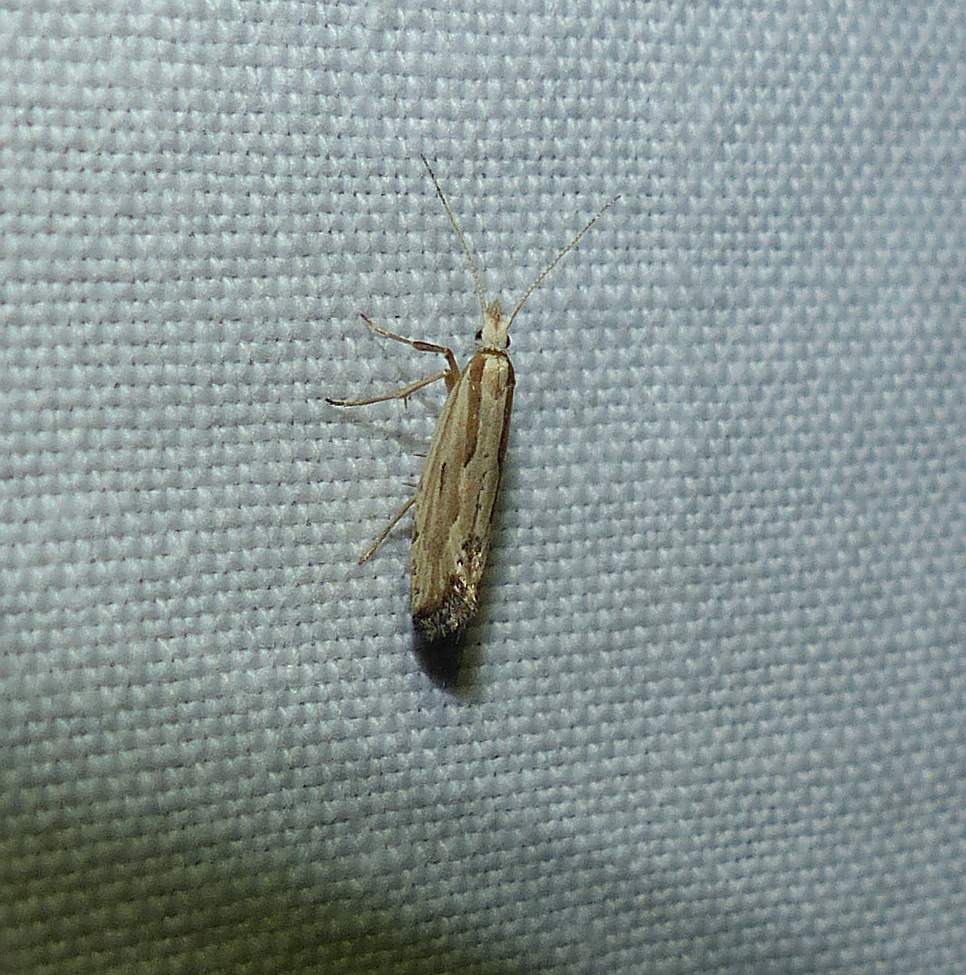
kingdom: Animalia
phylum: Arthropoda
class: Insecta
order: Lepidoptera
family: Plutellidae
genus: Plutella
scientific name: Plutella porrectella
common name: Dame's rocket moth
